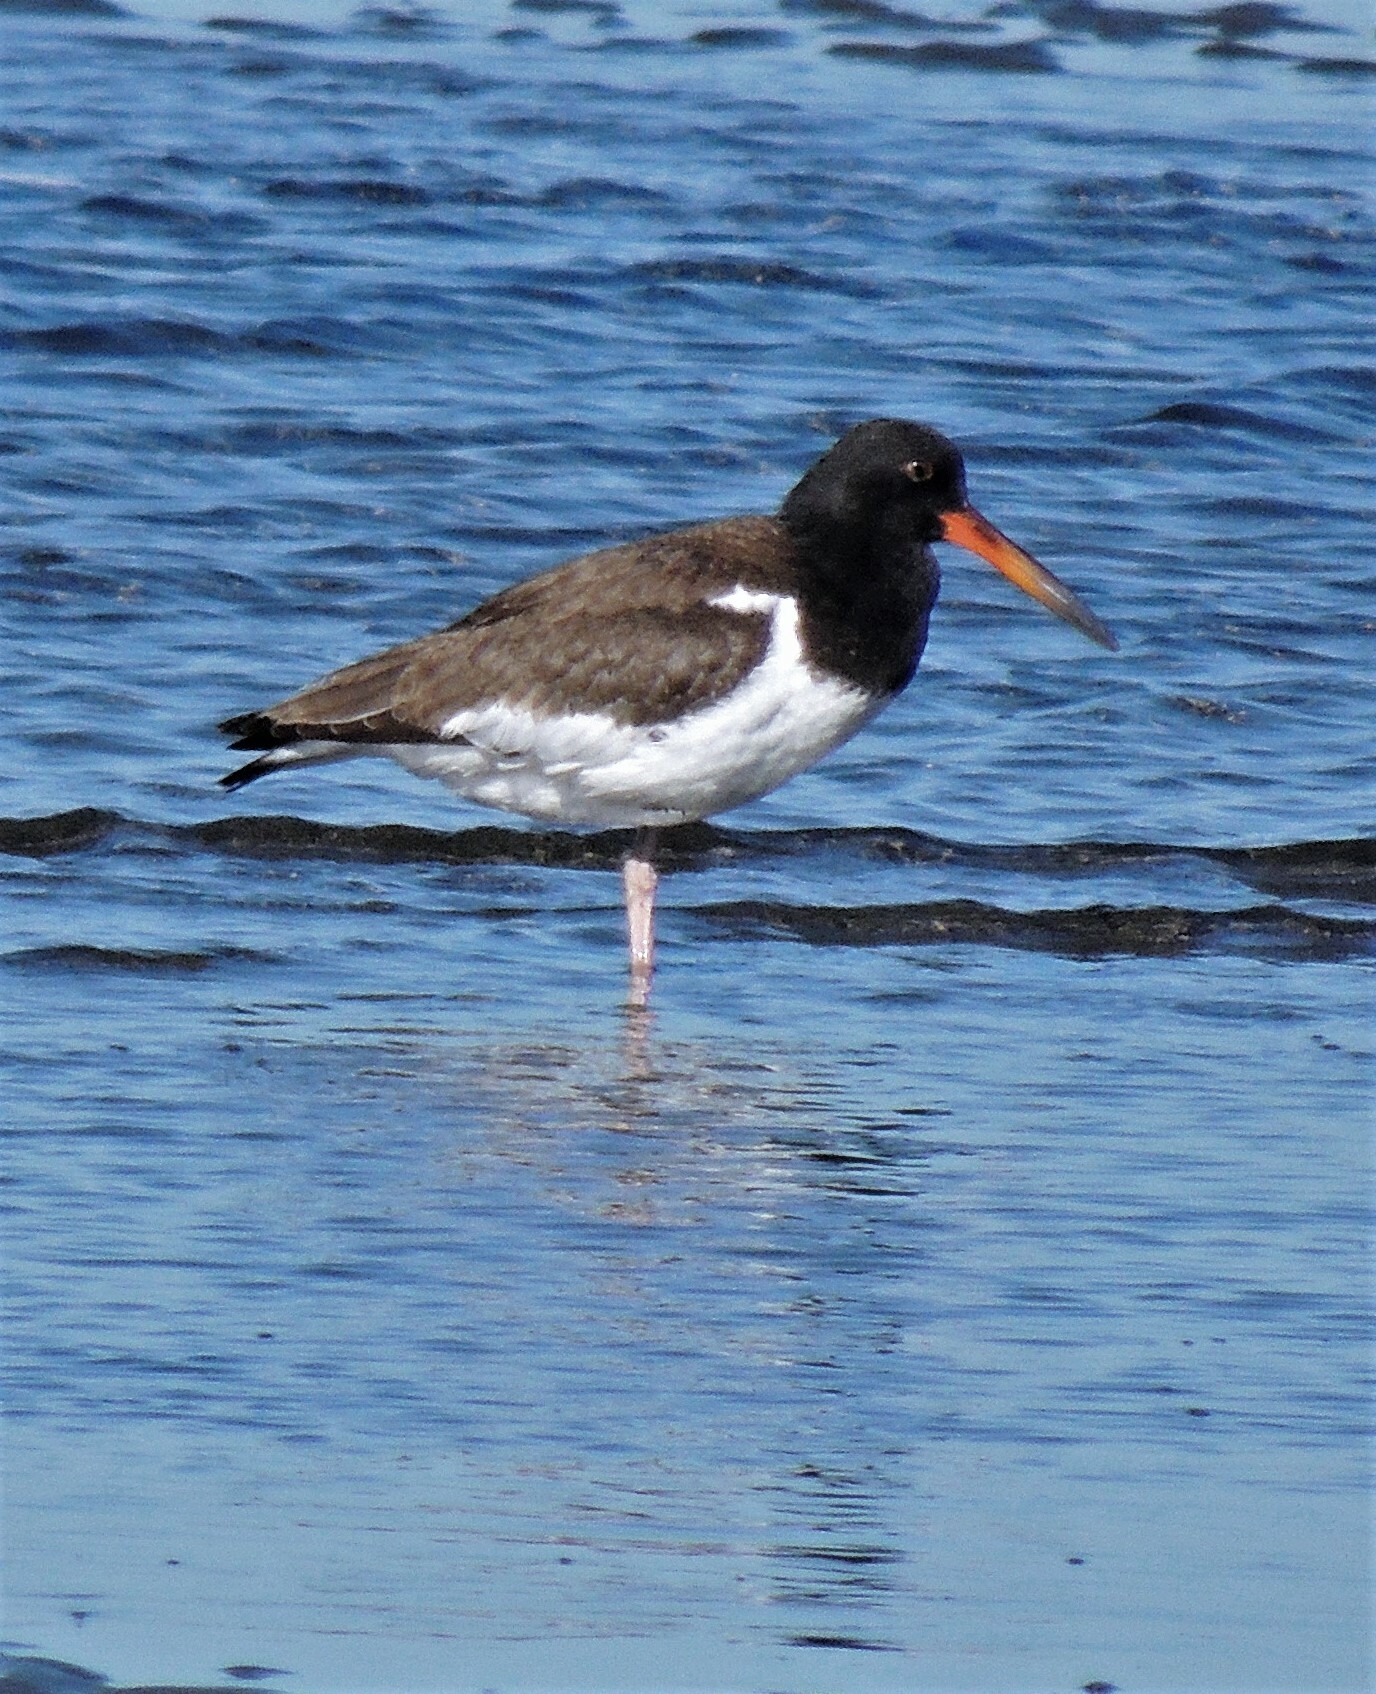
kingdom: Animalia
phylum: Chordata
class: Aves
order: Charadriiformes
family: Haematopodidae
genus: Haematopus
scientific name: Haematopus palliatus
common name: American oystercatcher
